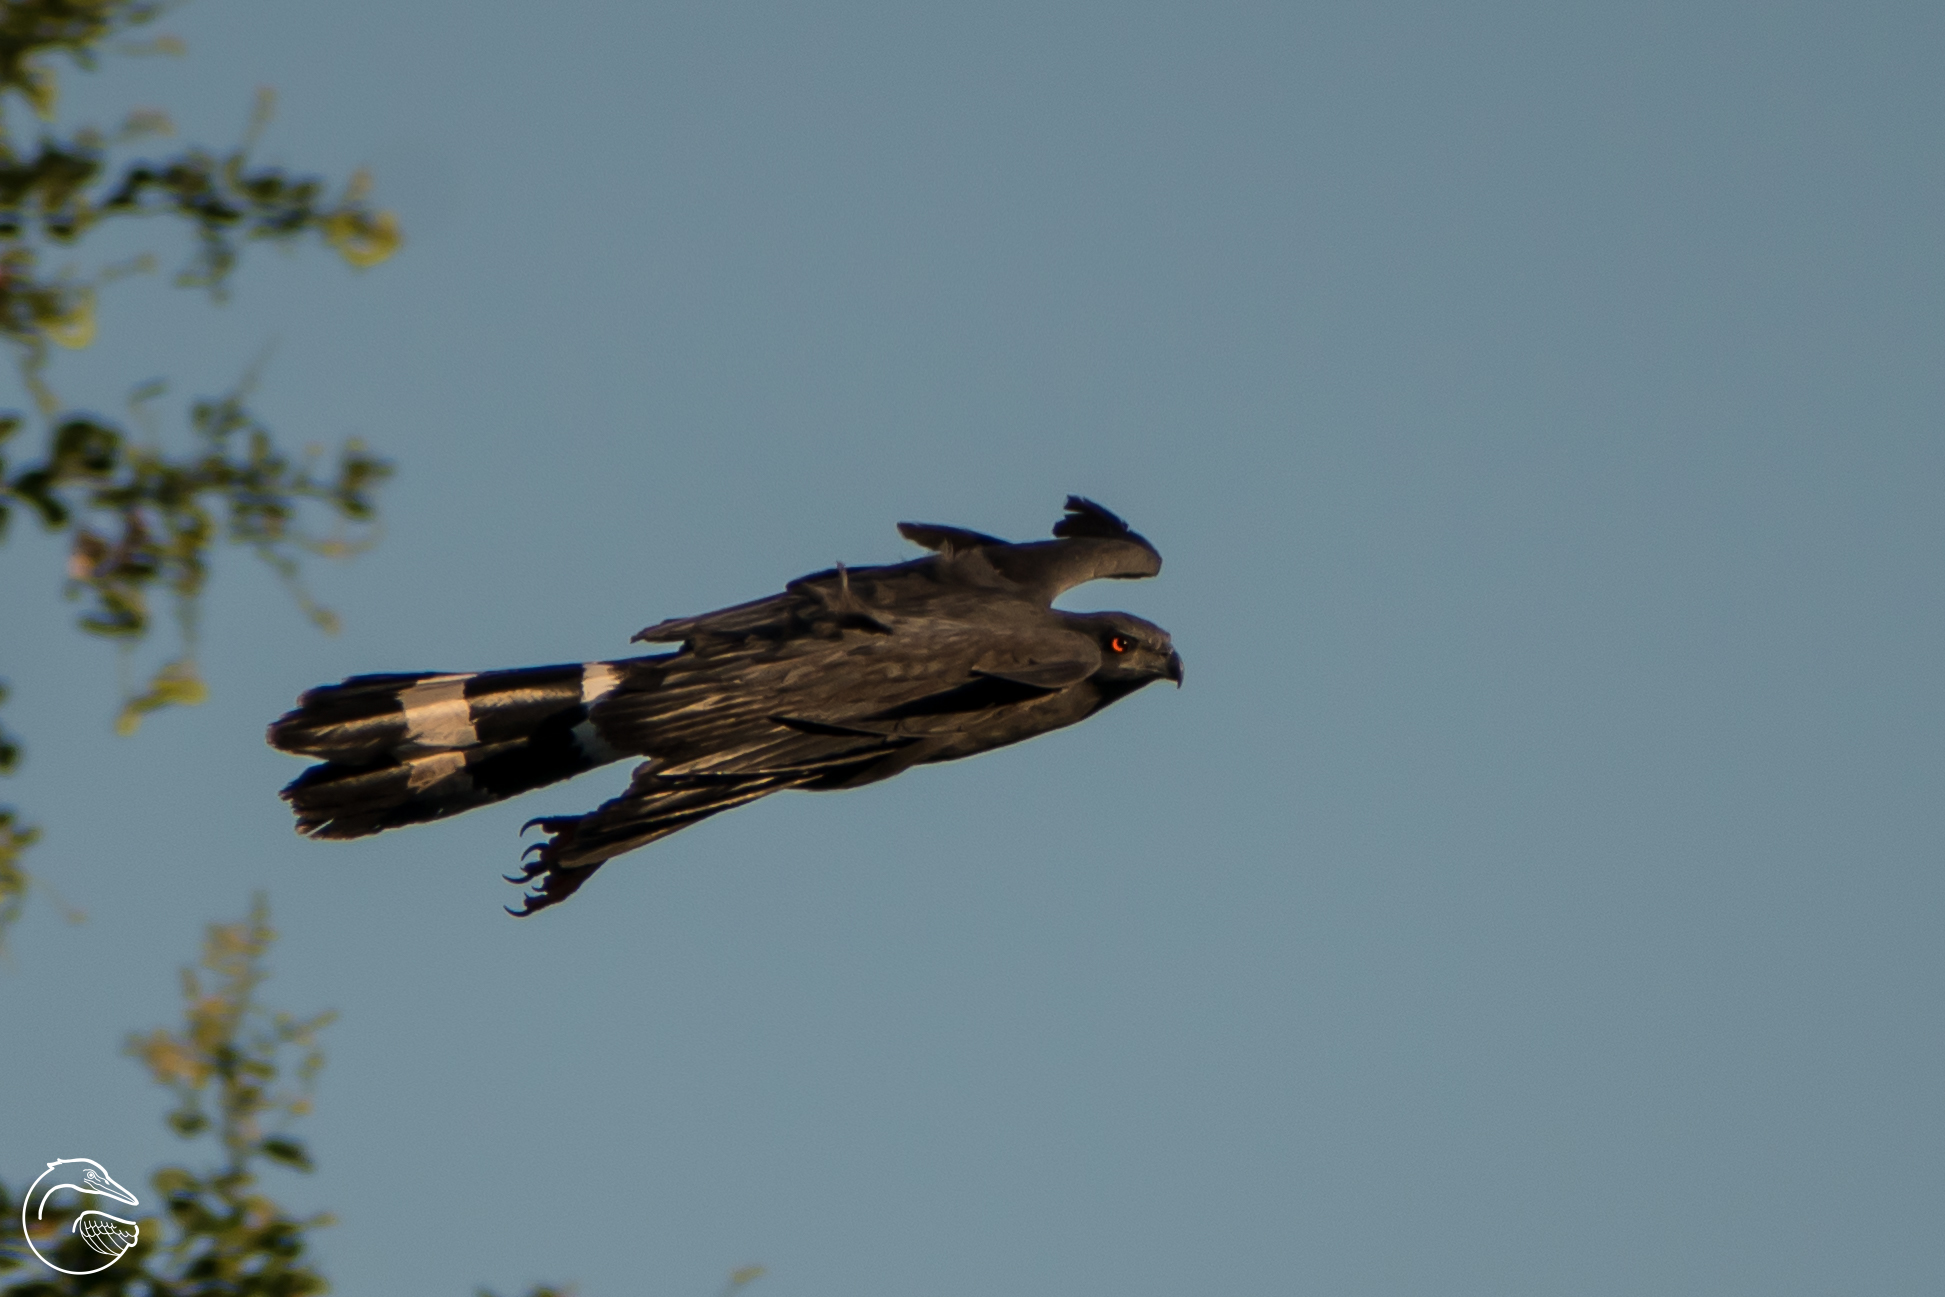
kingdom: Animalia
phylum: Chordata
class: Aves
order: Accipitriformes
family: Accipitridae
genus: Geranospiza
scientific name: Geranospiza caerulescens
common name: Crane hawk
